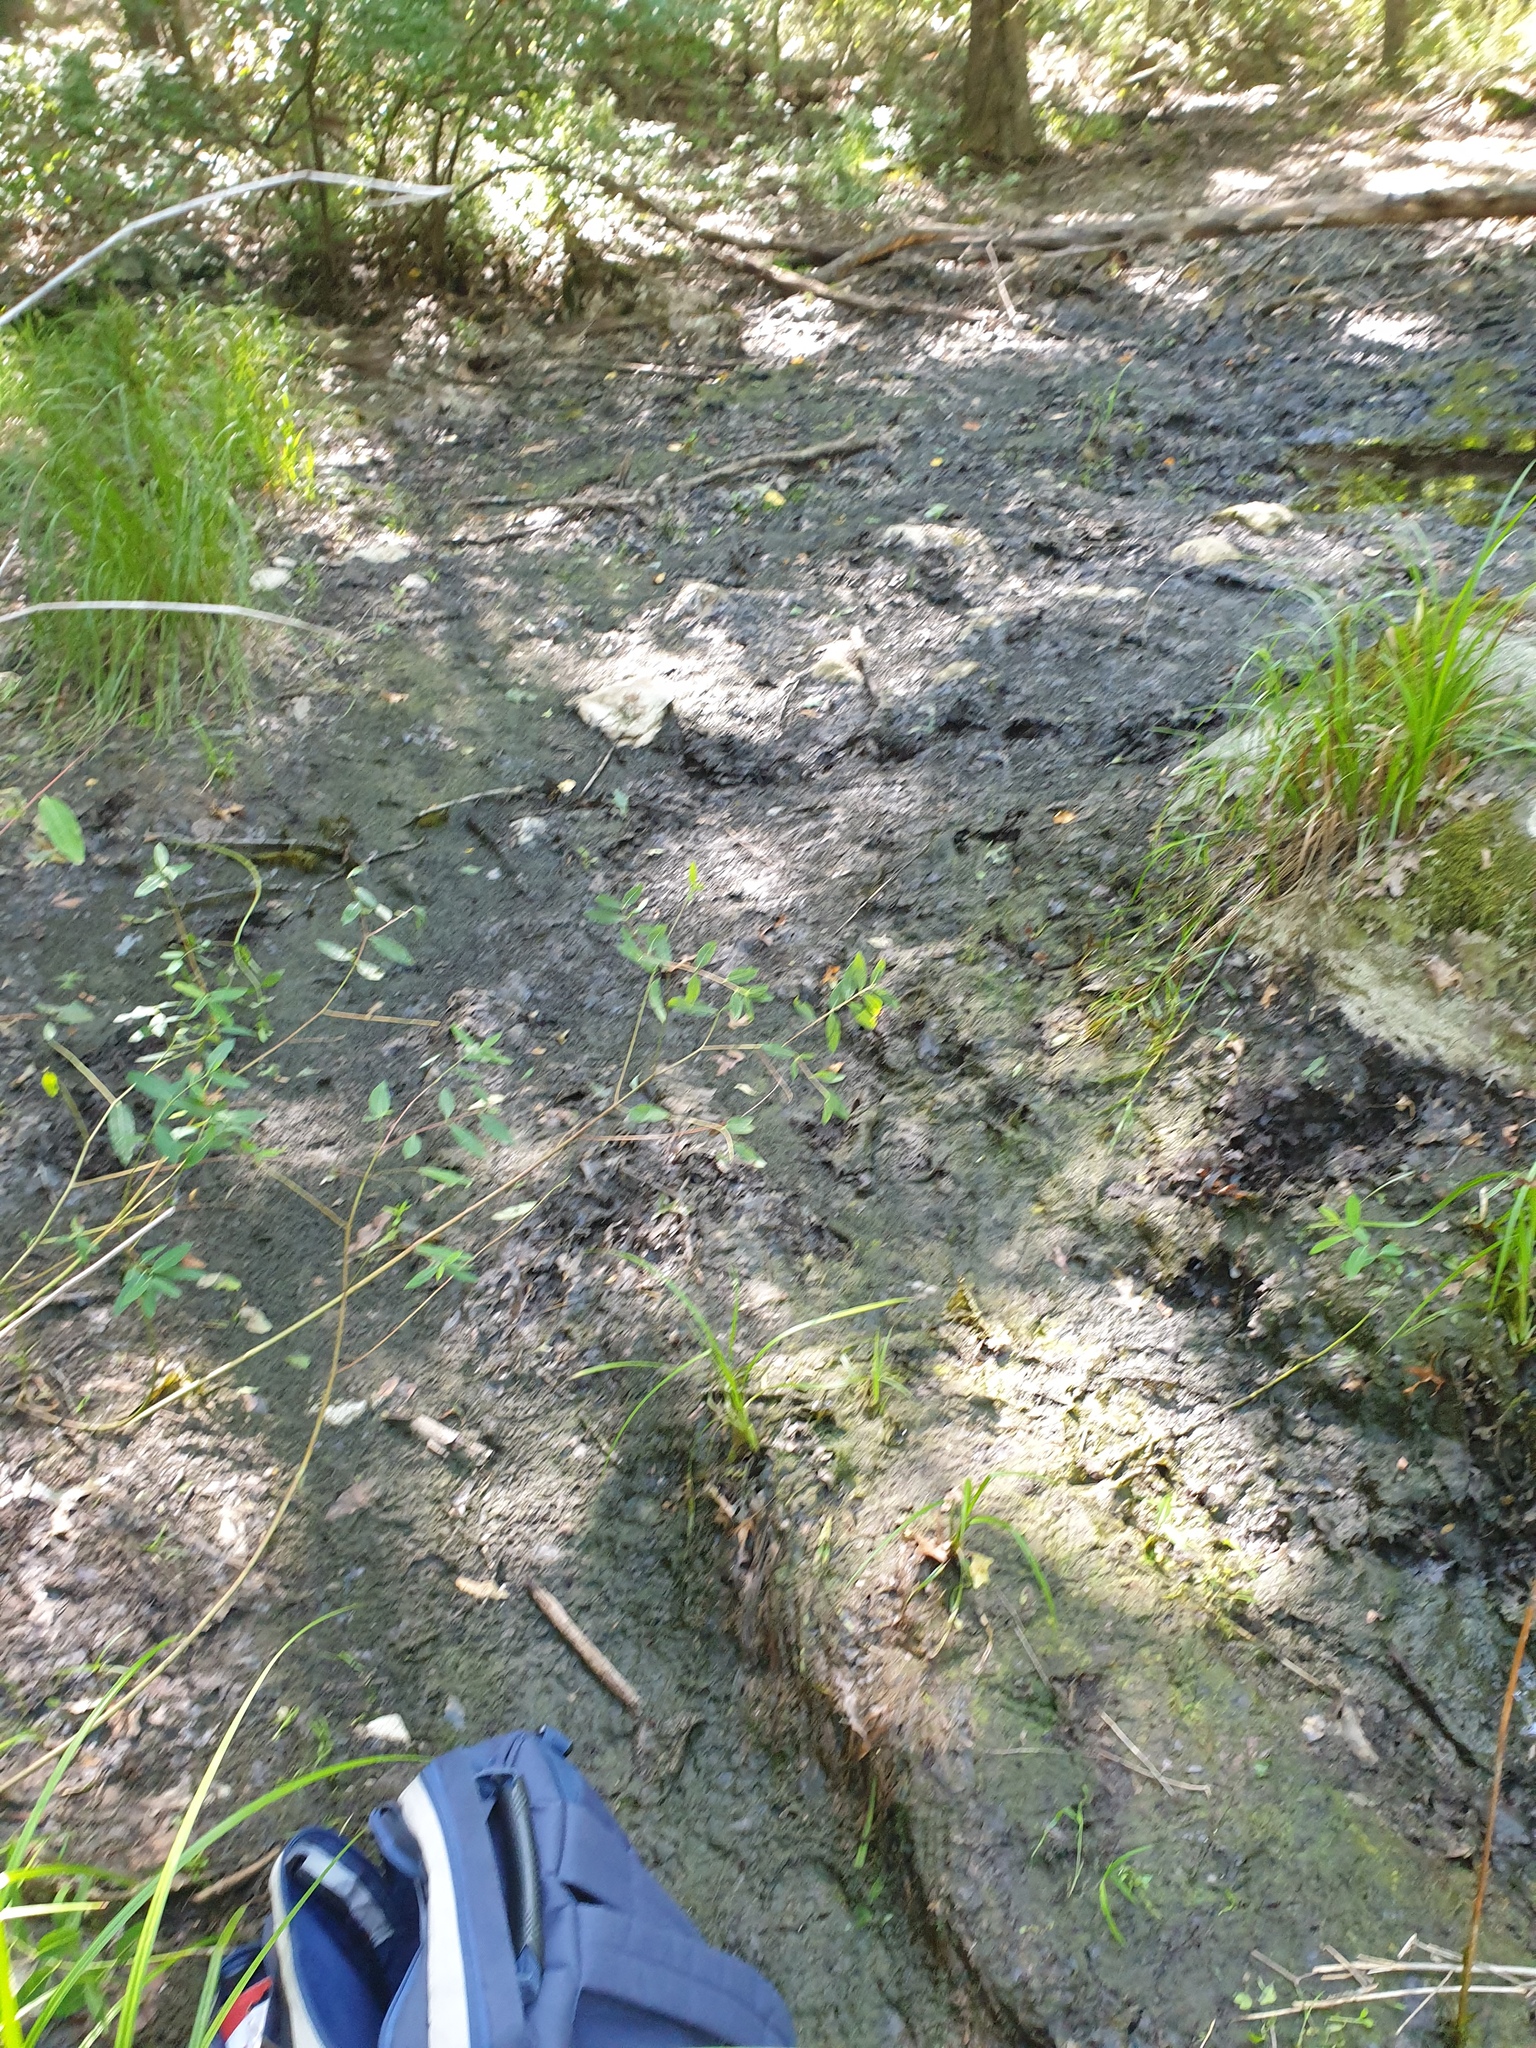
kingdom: Plantae
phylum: Tracheophyta
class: Liliopsida
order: Poales
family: Cyperaceae
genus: Carex
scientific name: Carex lupuliformis
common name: False hop sedge
